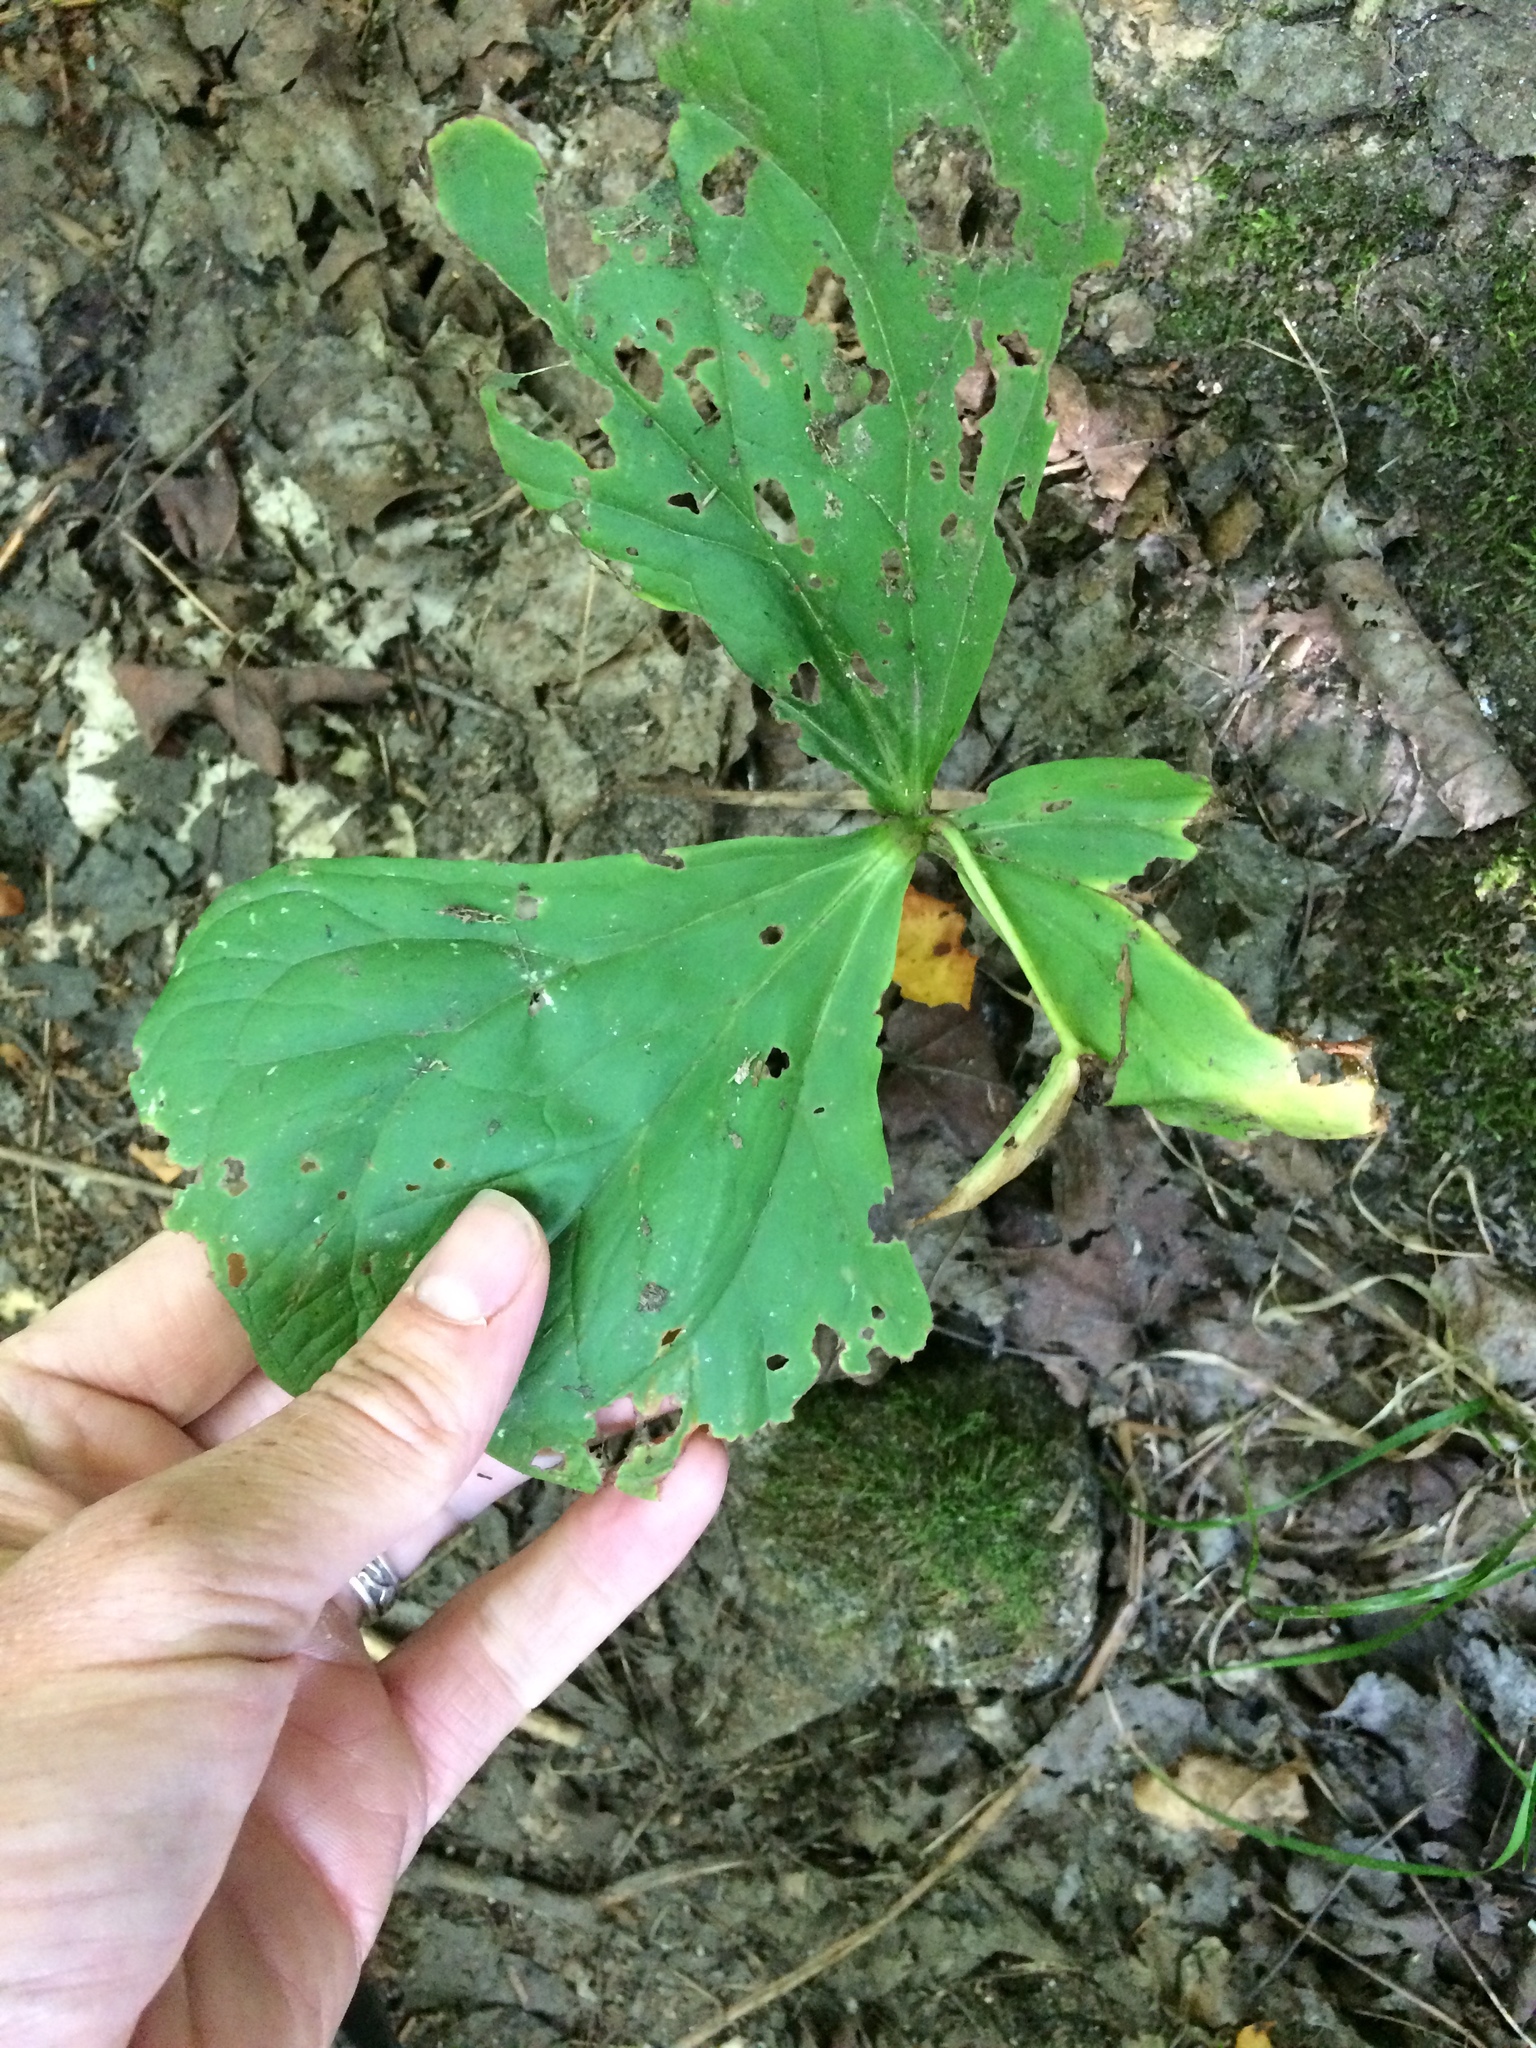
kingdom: Plantae
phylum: Tracheophyta
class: Liliopsida
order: Liliales
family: Melanthiaceae
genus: Trillium
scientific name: Trillium erectum
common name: Purple trillium
